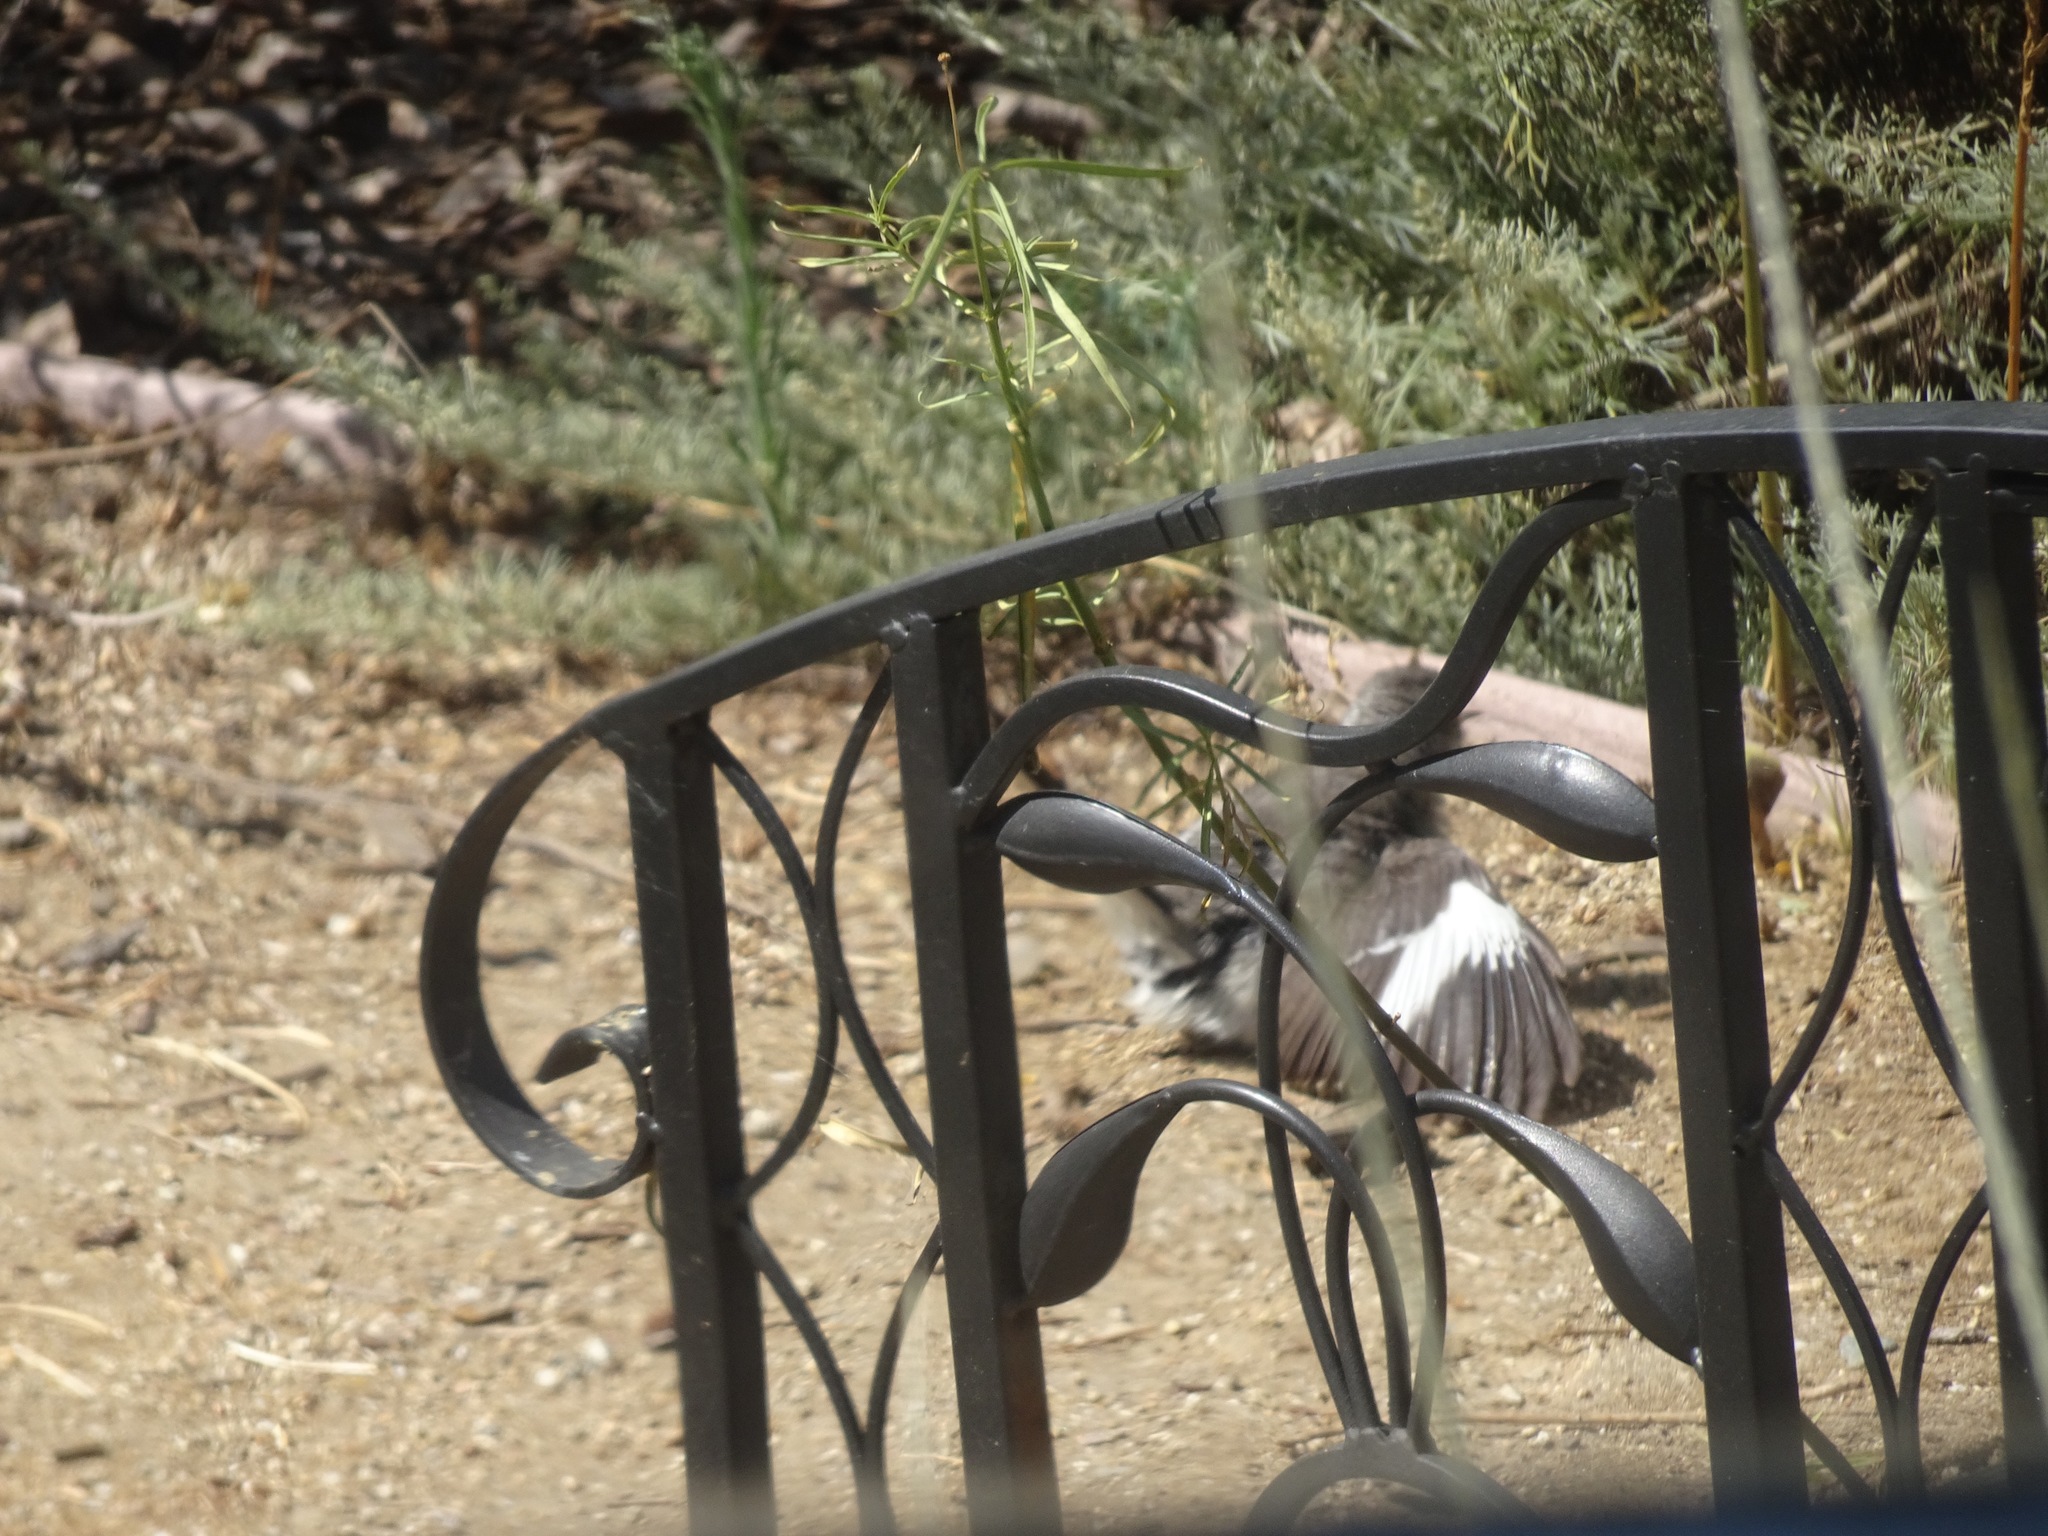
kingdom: Animalia
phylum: Chordata
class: Aves
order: Passeriformes
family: Mimidae
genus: Mimus
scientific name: Mimus polyglottos
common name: Northern mockingbird
